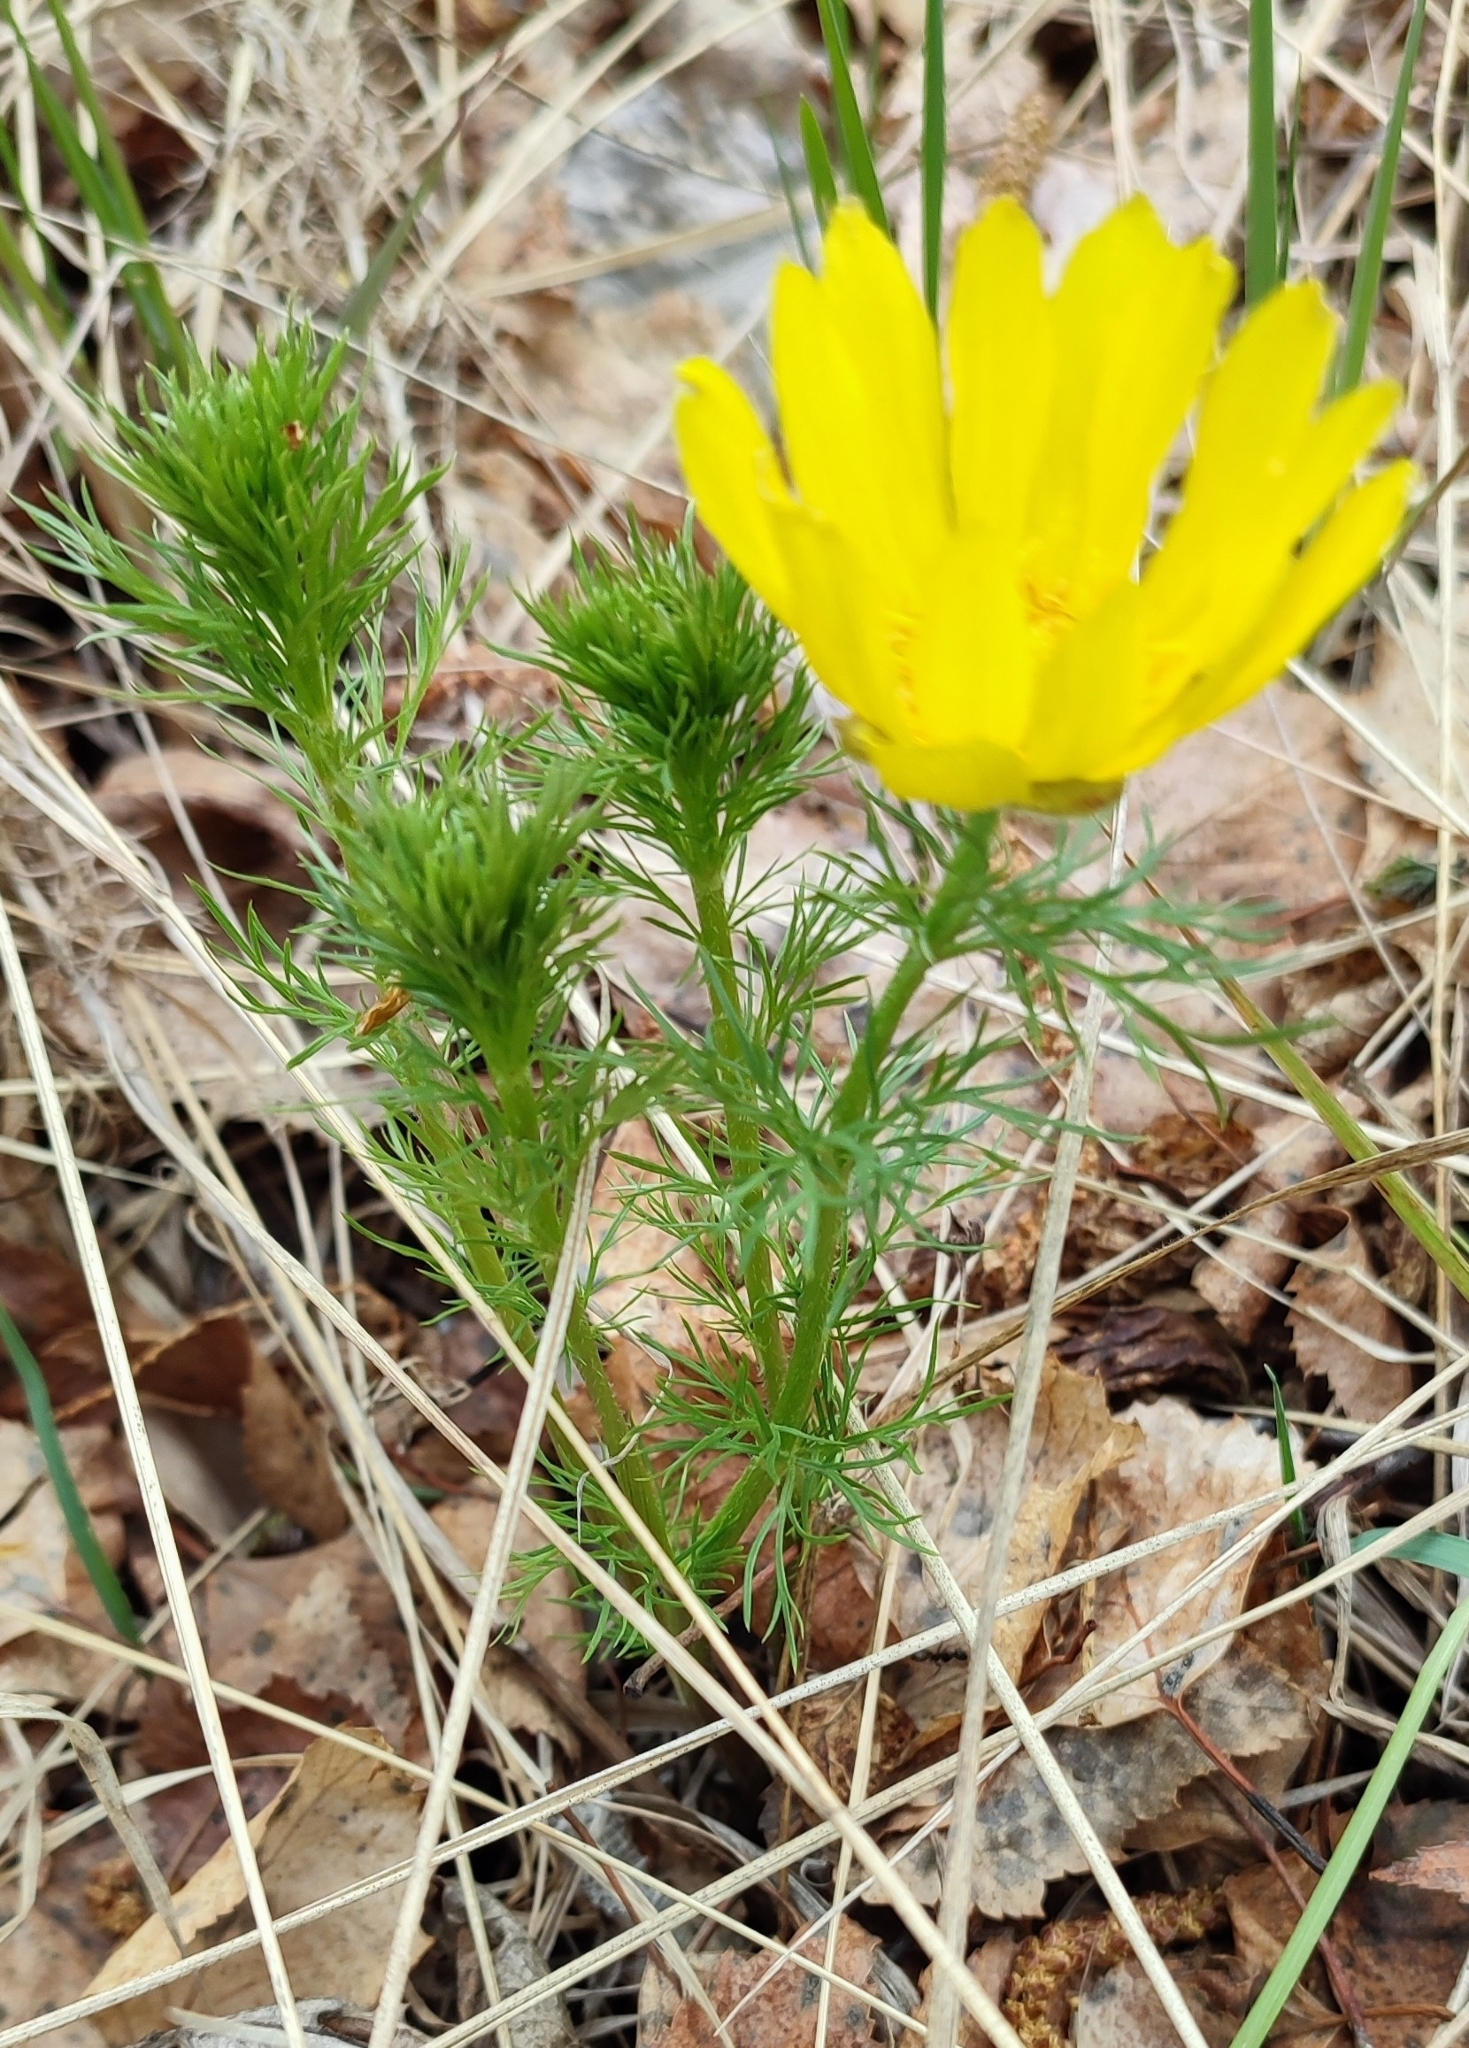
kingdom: Plantae
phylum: Tracheophyta
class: Magnoliopsida
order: Ranunculales
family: Ranunculaceae
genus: Adonis
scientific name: Adonis vernalis
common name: Yellow pheasants-eye
